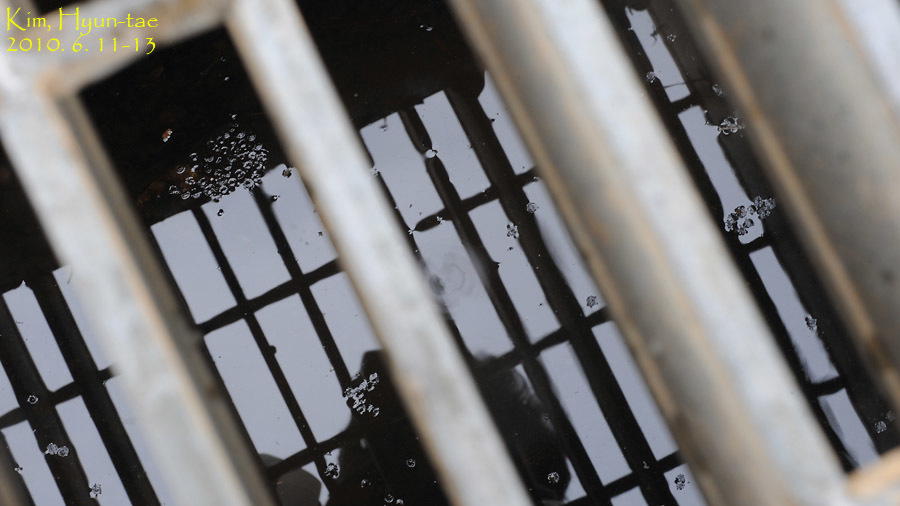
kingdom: Animalia
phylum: Chordata
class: Amphibia
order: Anura
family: Microhylidae
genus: Kaloula
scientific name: Kaloula borealis
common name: Boreal digging frog
